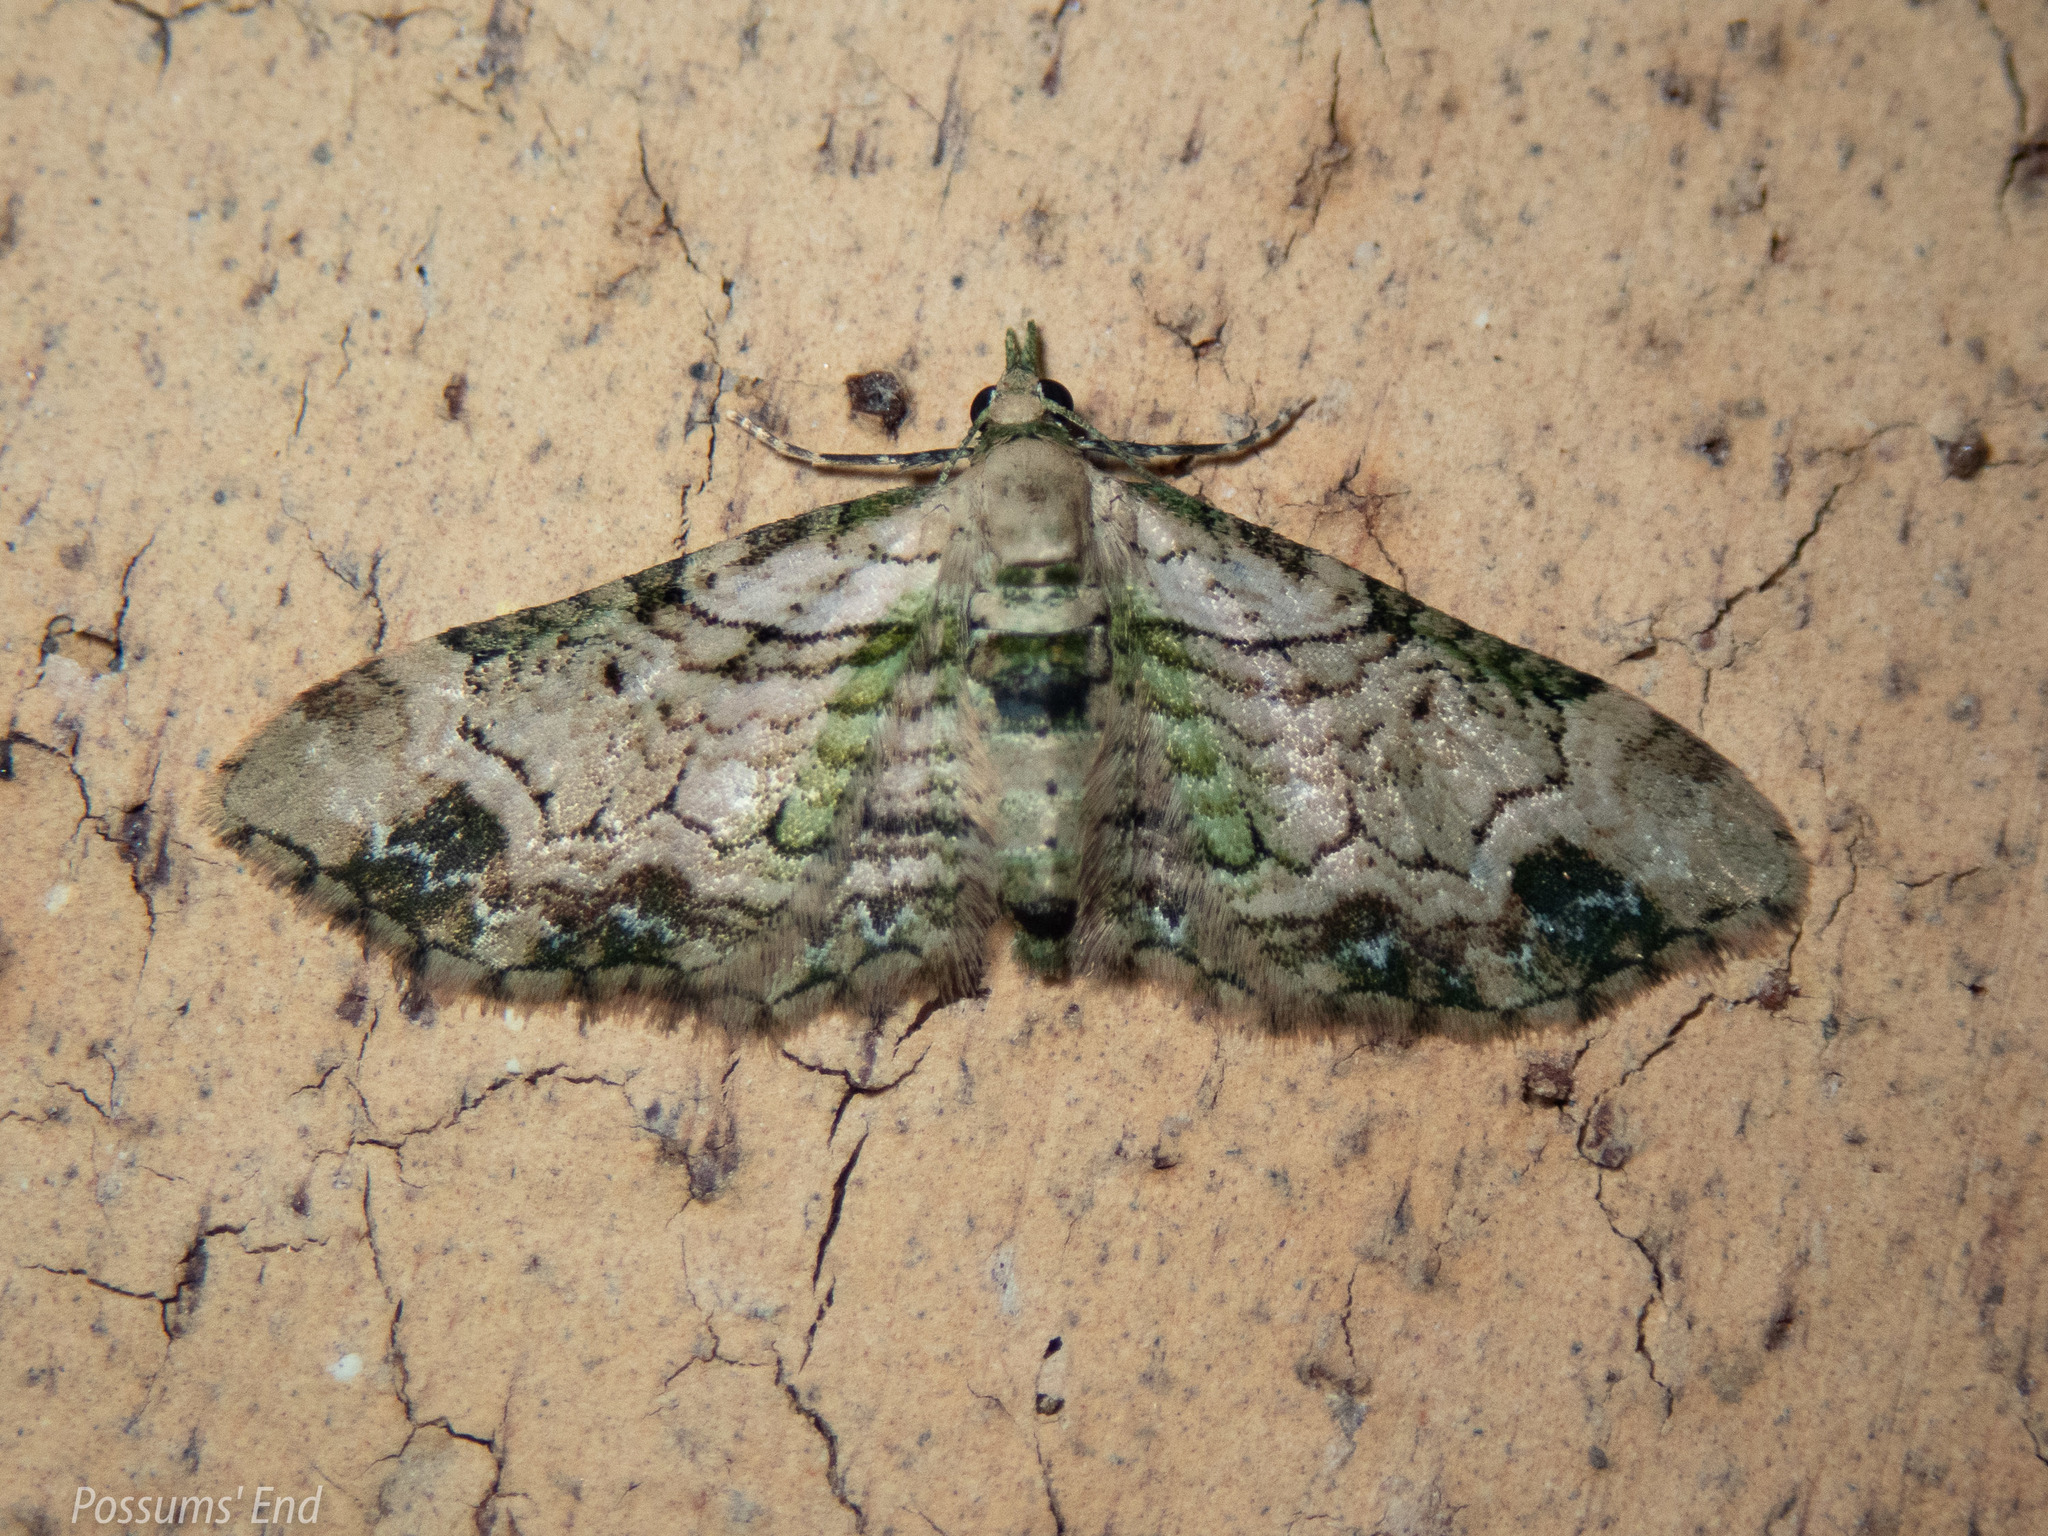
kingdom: Animalia
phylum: Arthropoda
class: Insecta
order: Lepidoptera
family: Geometridae
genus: Chloroclystis
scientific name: Chloroclystis
